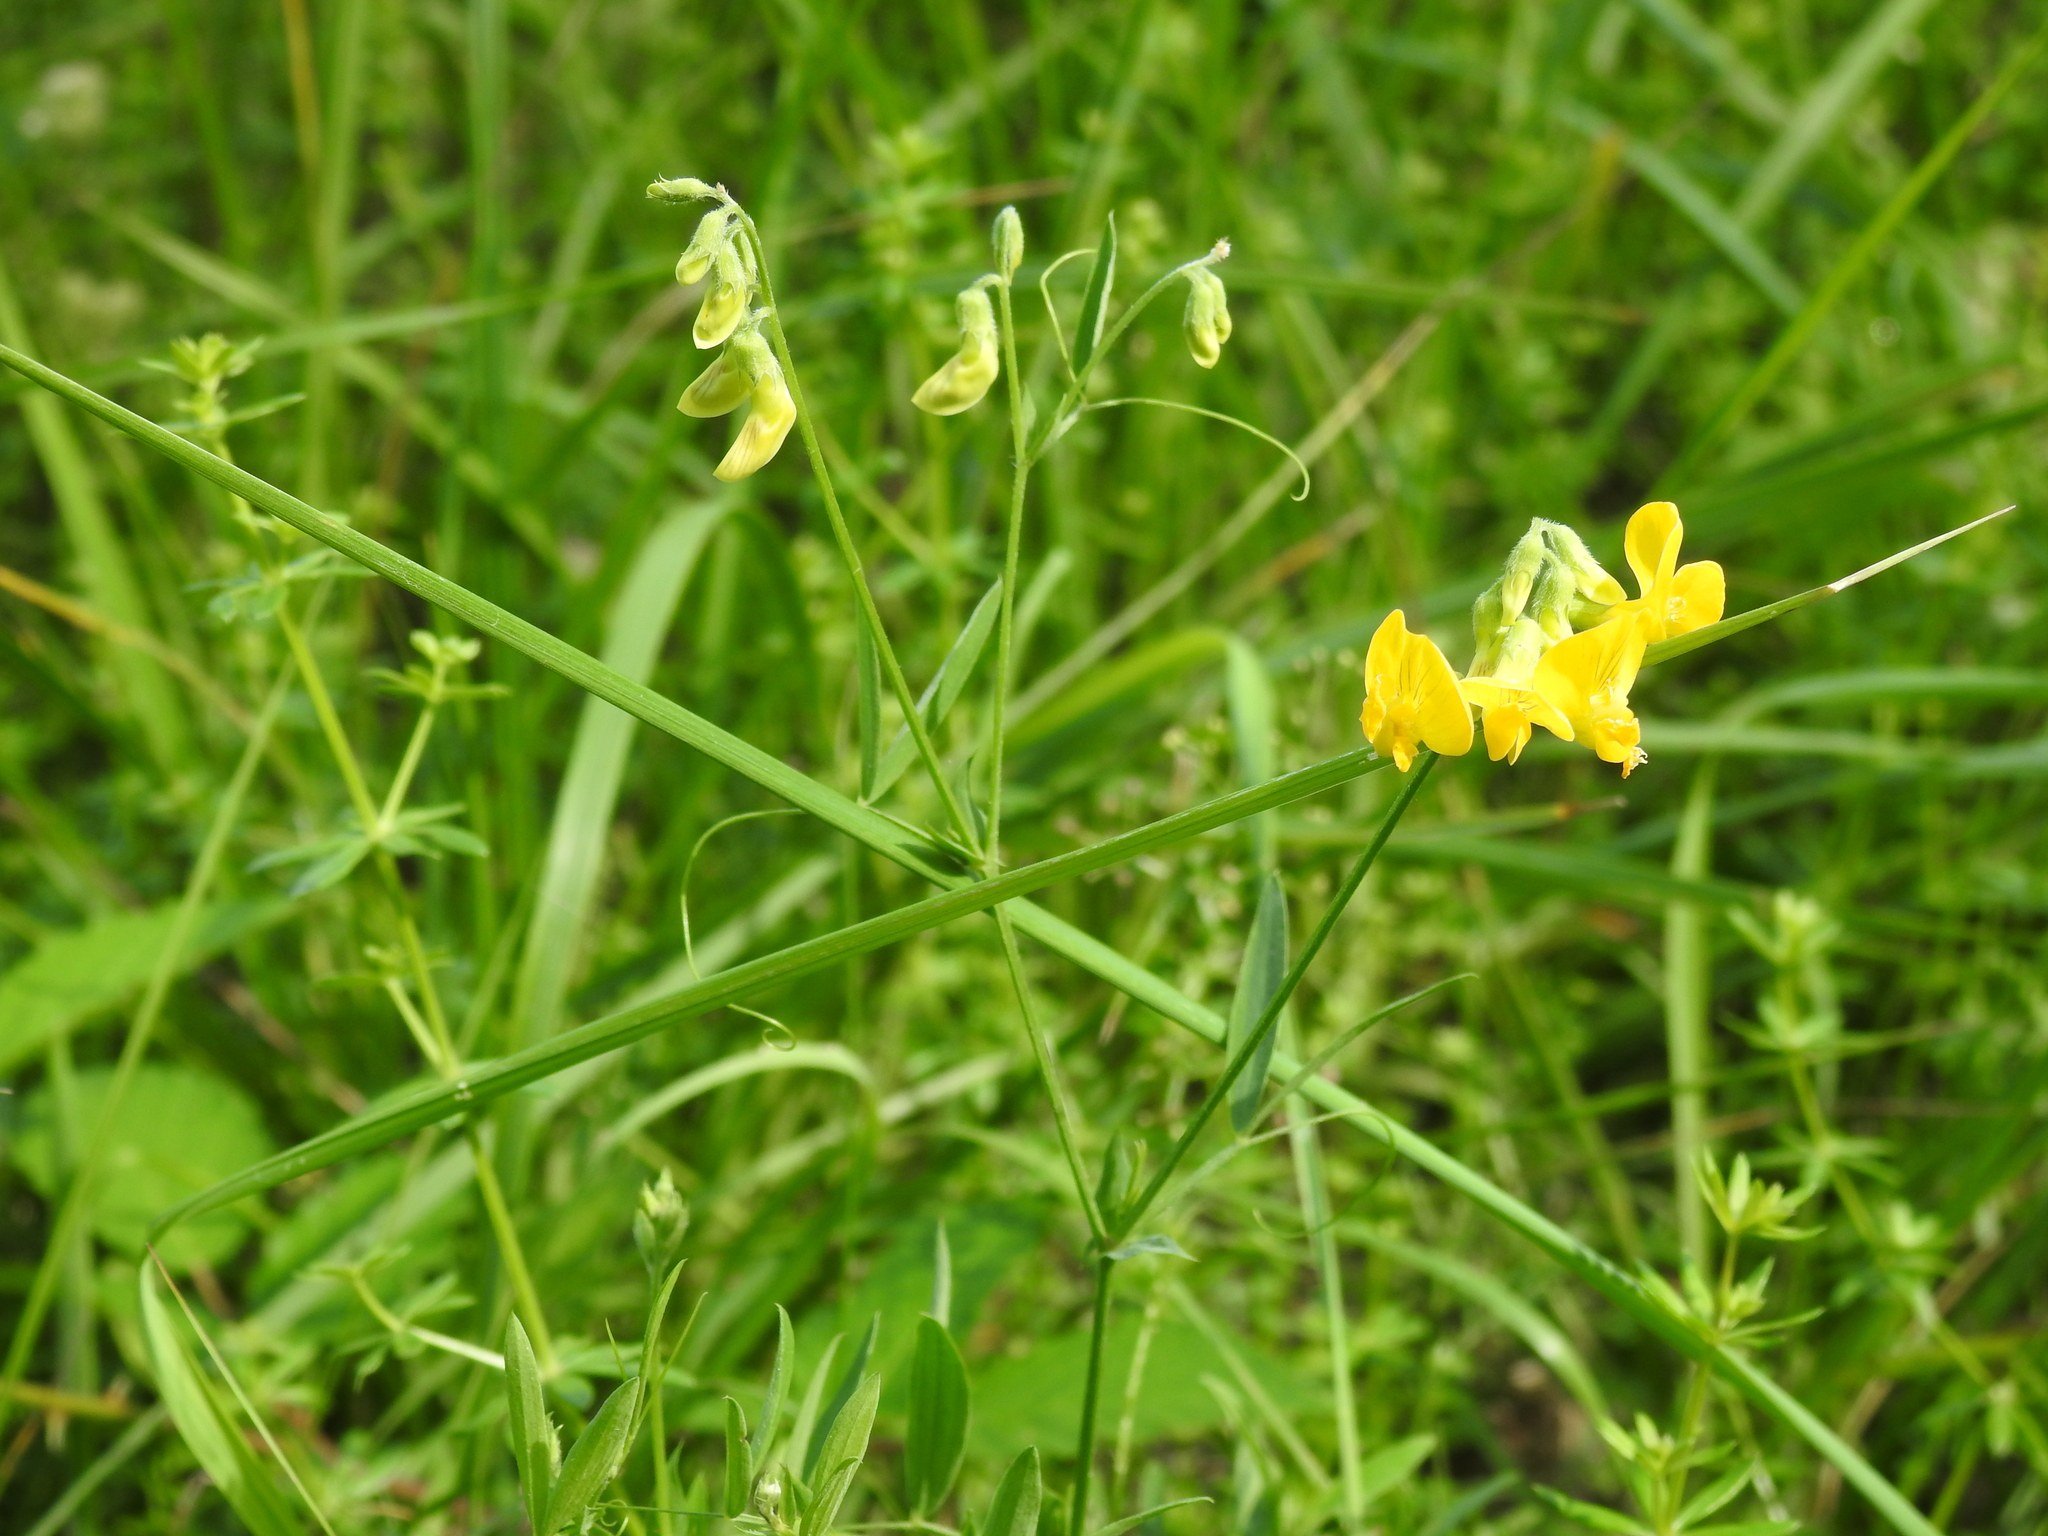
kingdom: Plantae
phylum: Tracheophyta
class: Magnoliopsida
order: Fabales
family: Fabaceae
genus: Lathyrus
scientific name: Lathyrus pratensis
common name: Meadow vetchling
